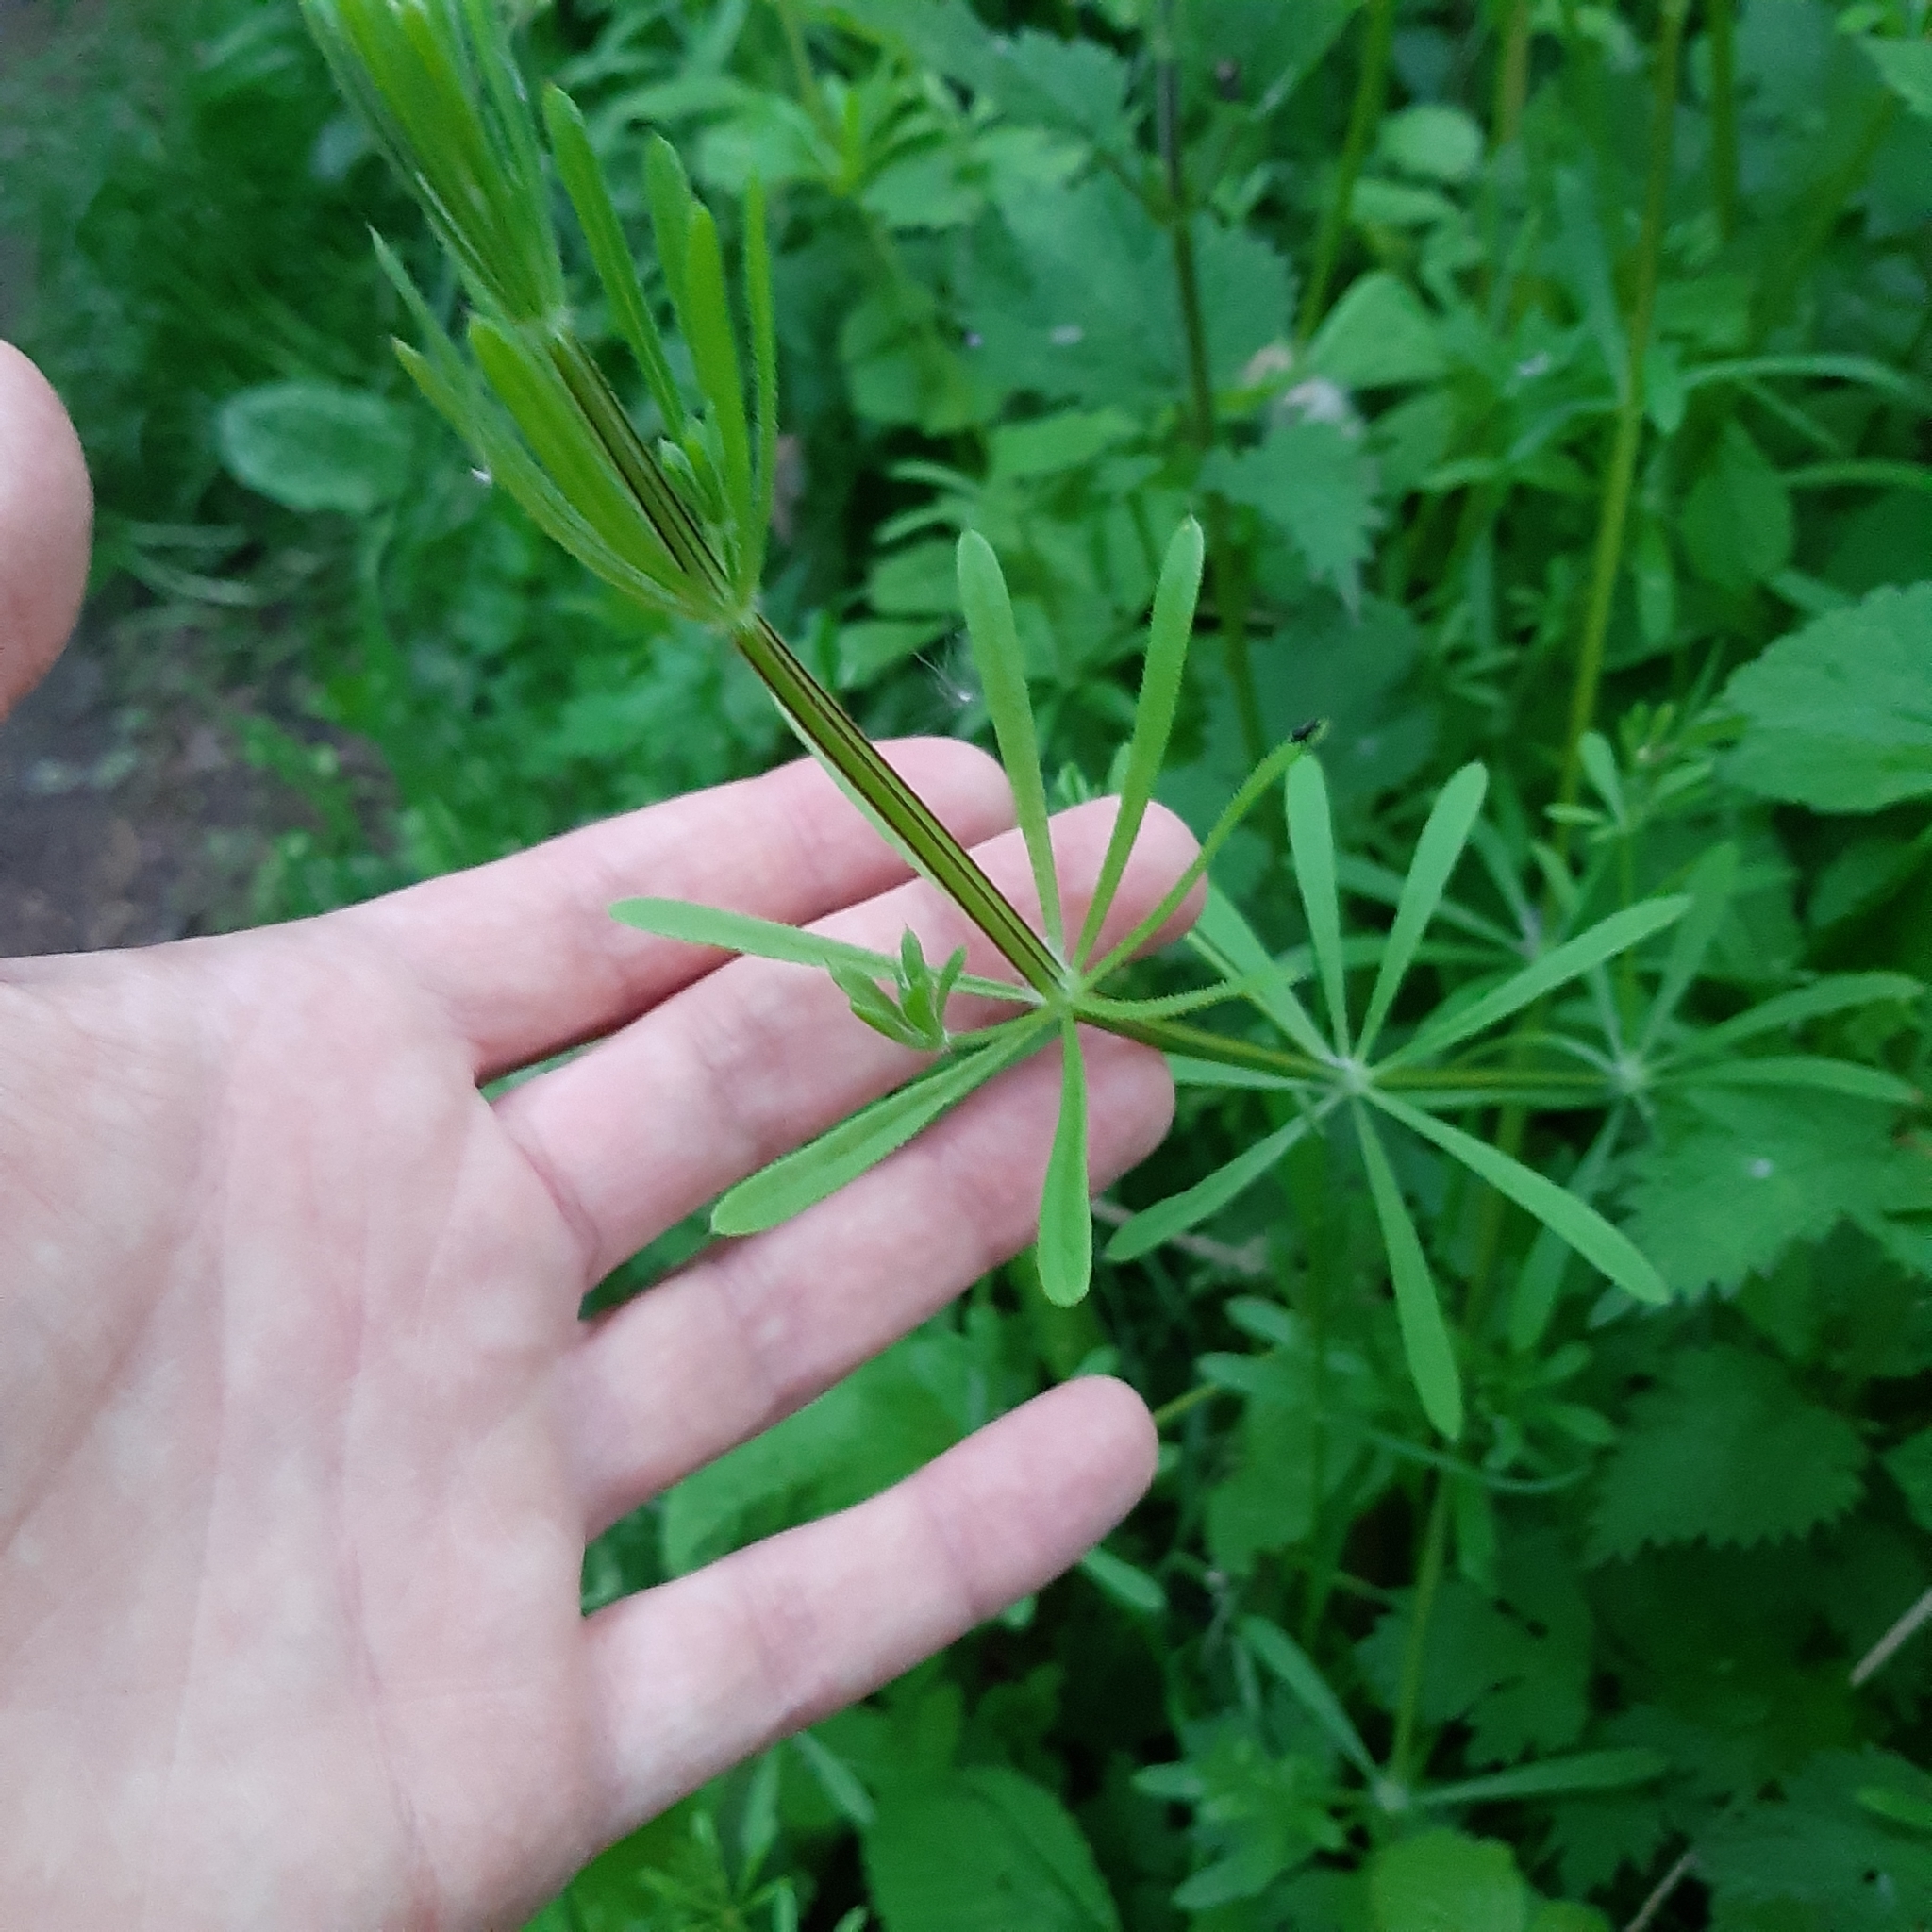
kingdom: Plantae
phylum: Tracheophyta
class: Magnoliopsida
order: Gentianales
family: Rubiaceae
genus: Galium
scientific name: Galium aparine
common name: Cleavers
